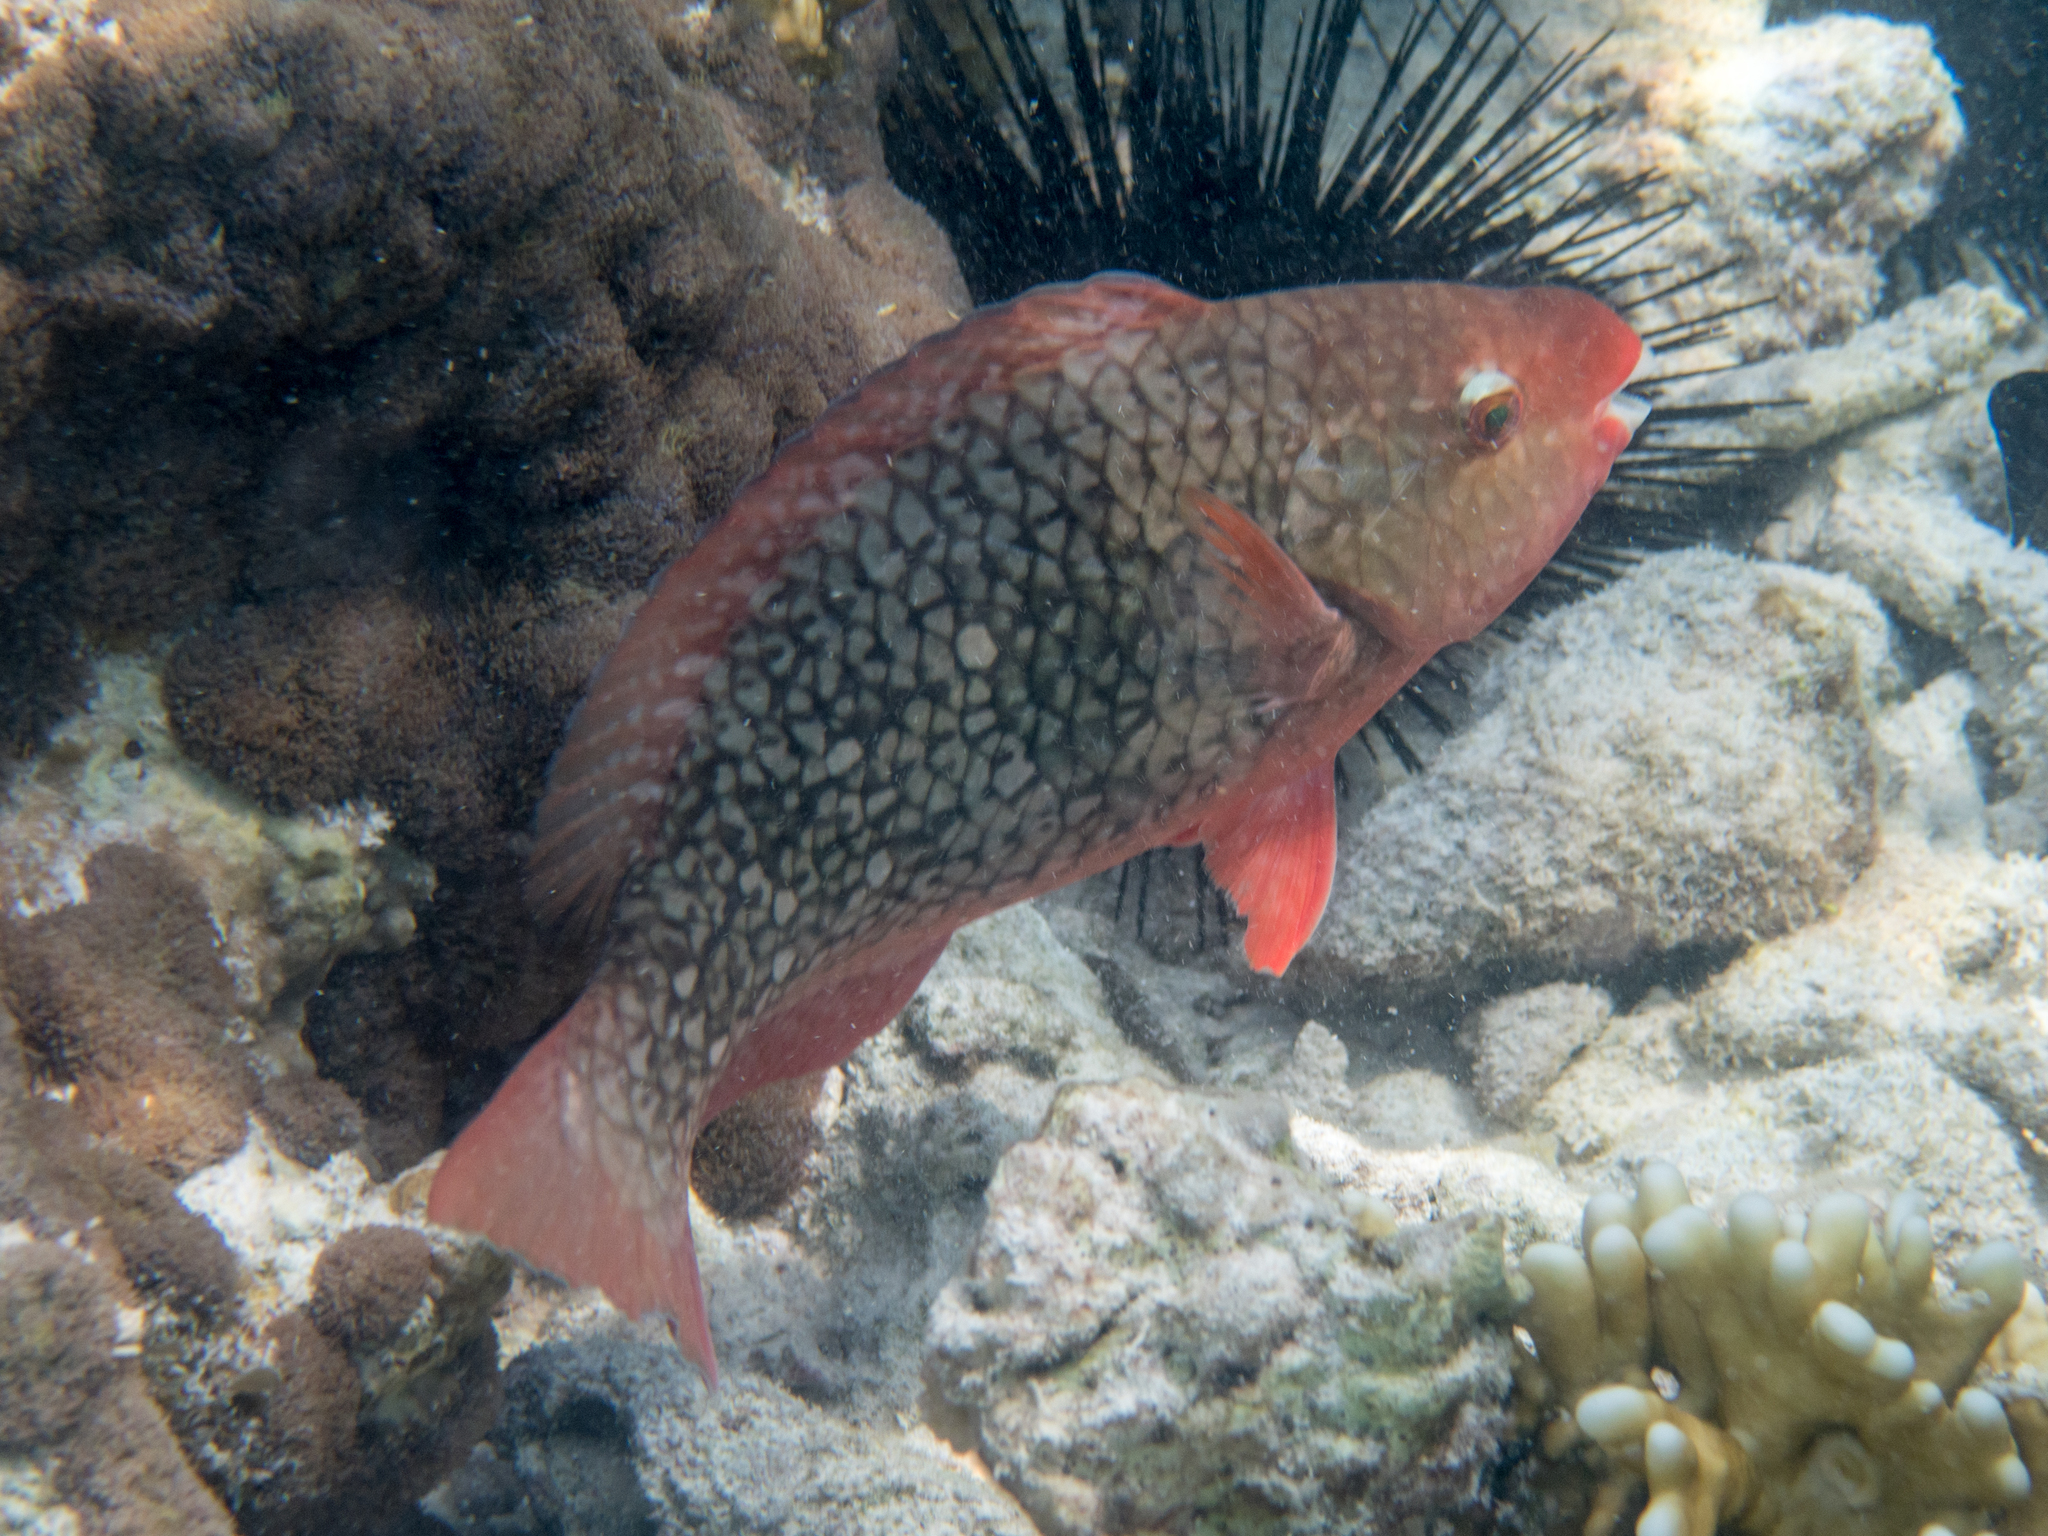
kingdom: Animalia
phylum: Chordata
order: Perciformes
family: Scaridae
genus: Scarus
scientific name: Scarus rubroviolaceus
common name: Ember parrotfish
